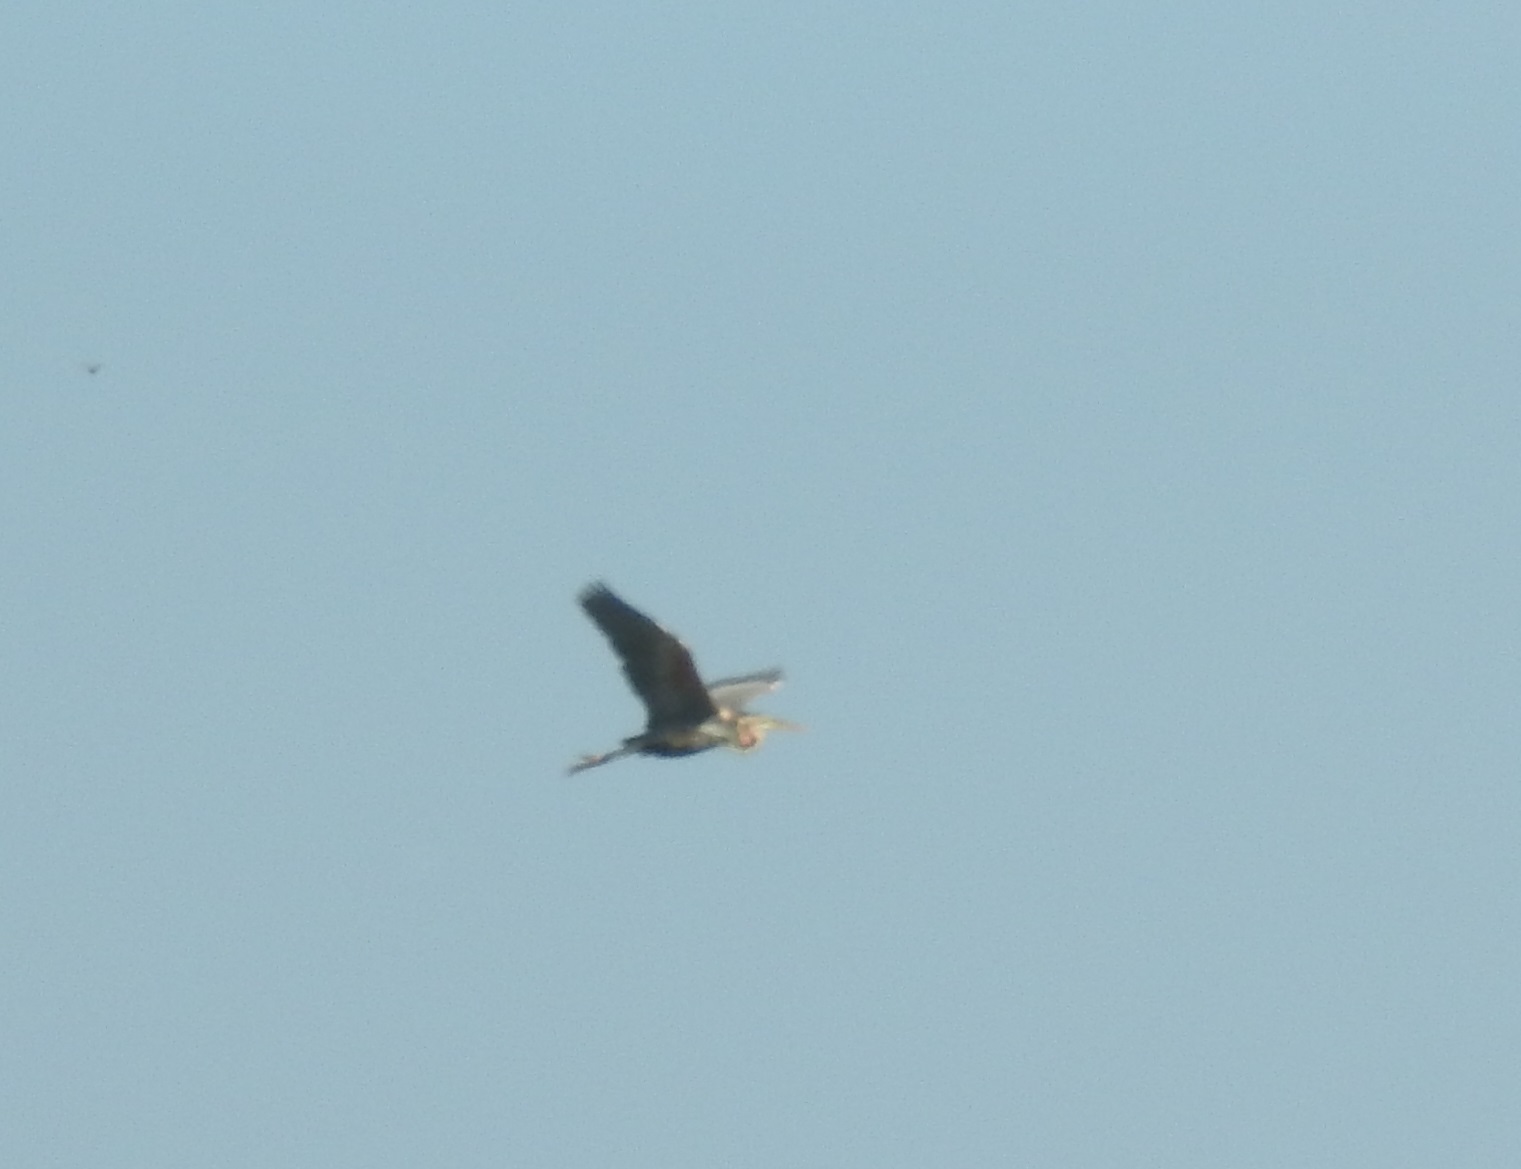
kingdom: Animalia
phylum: Chordata
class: Aves
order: Pelecaniformes
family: Ardeidae
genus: Ardea
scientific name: Ardea purpurea
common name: Purple heron
